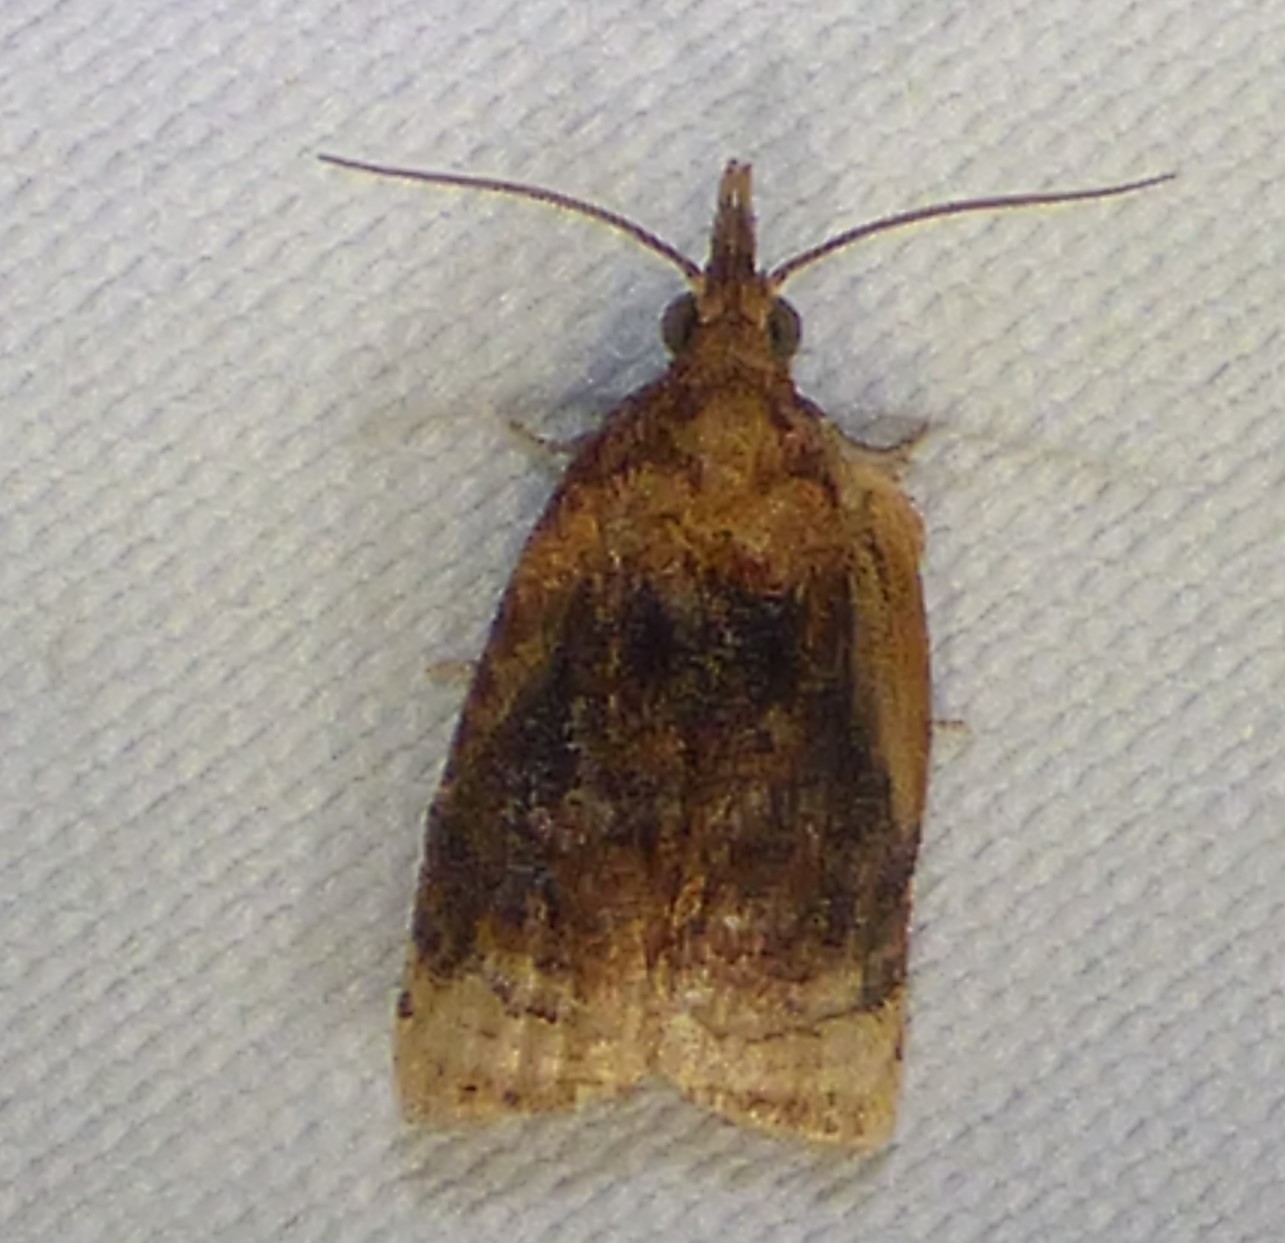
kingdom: Animalia
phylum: Arthropoda
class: Insecta
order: Lepidoptera
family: Tortricidae
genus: Platynota
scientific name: Platynota flavedana
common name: Black-shaded platynota moth
